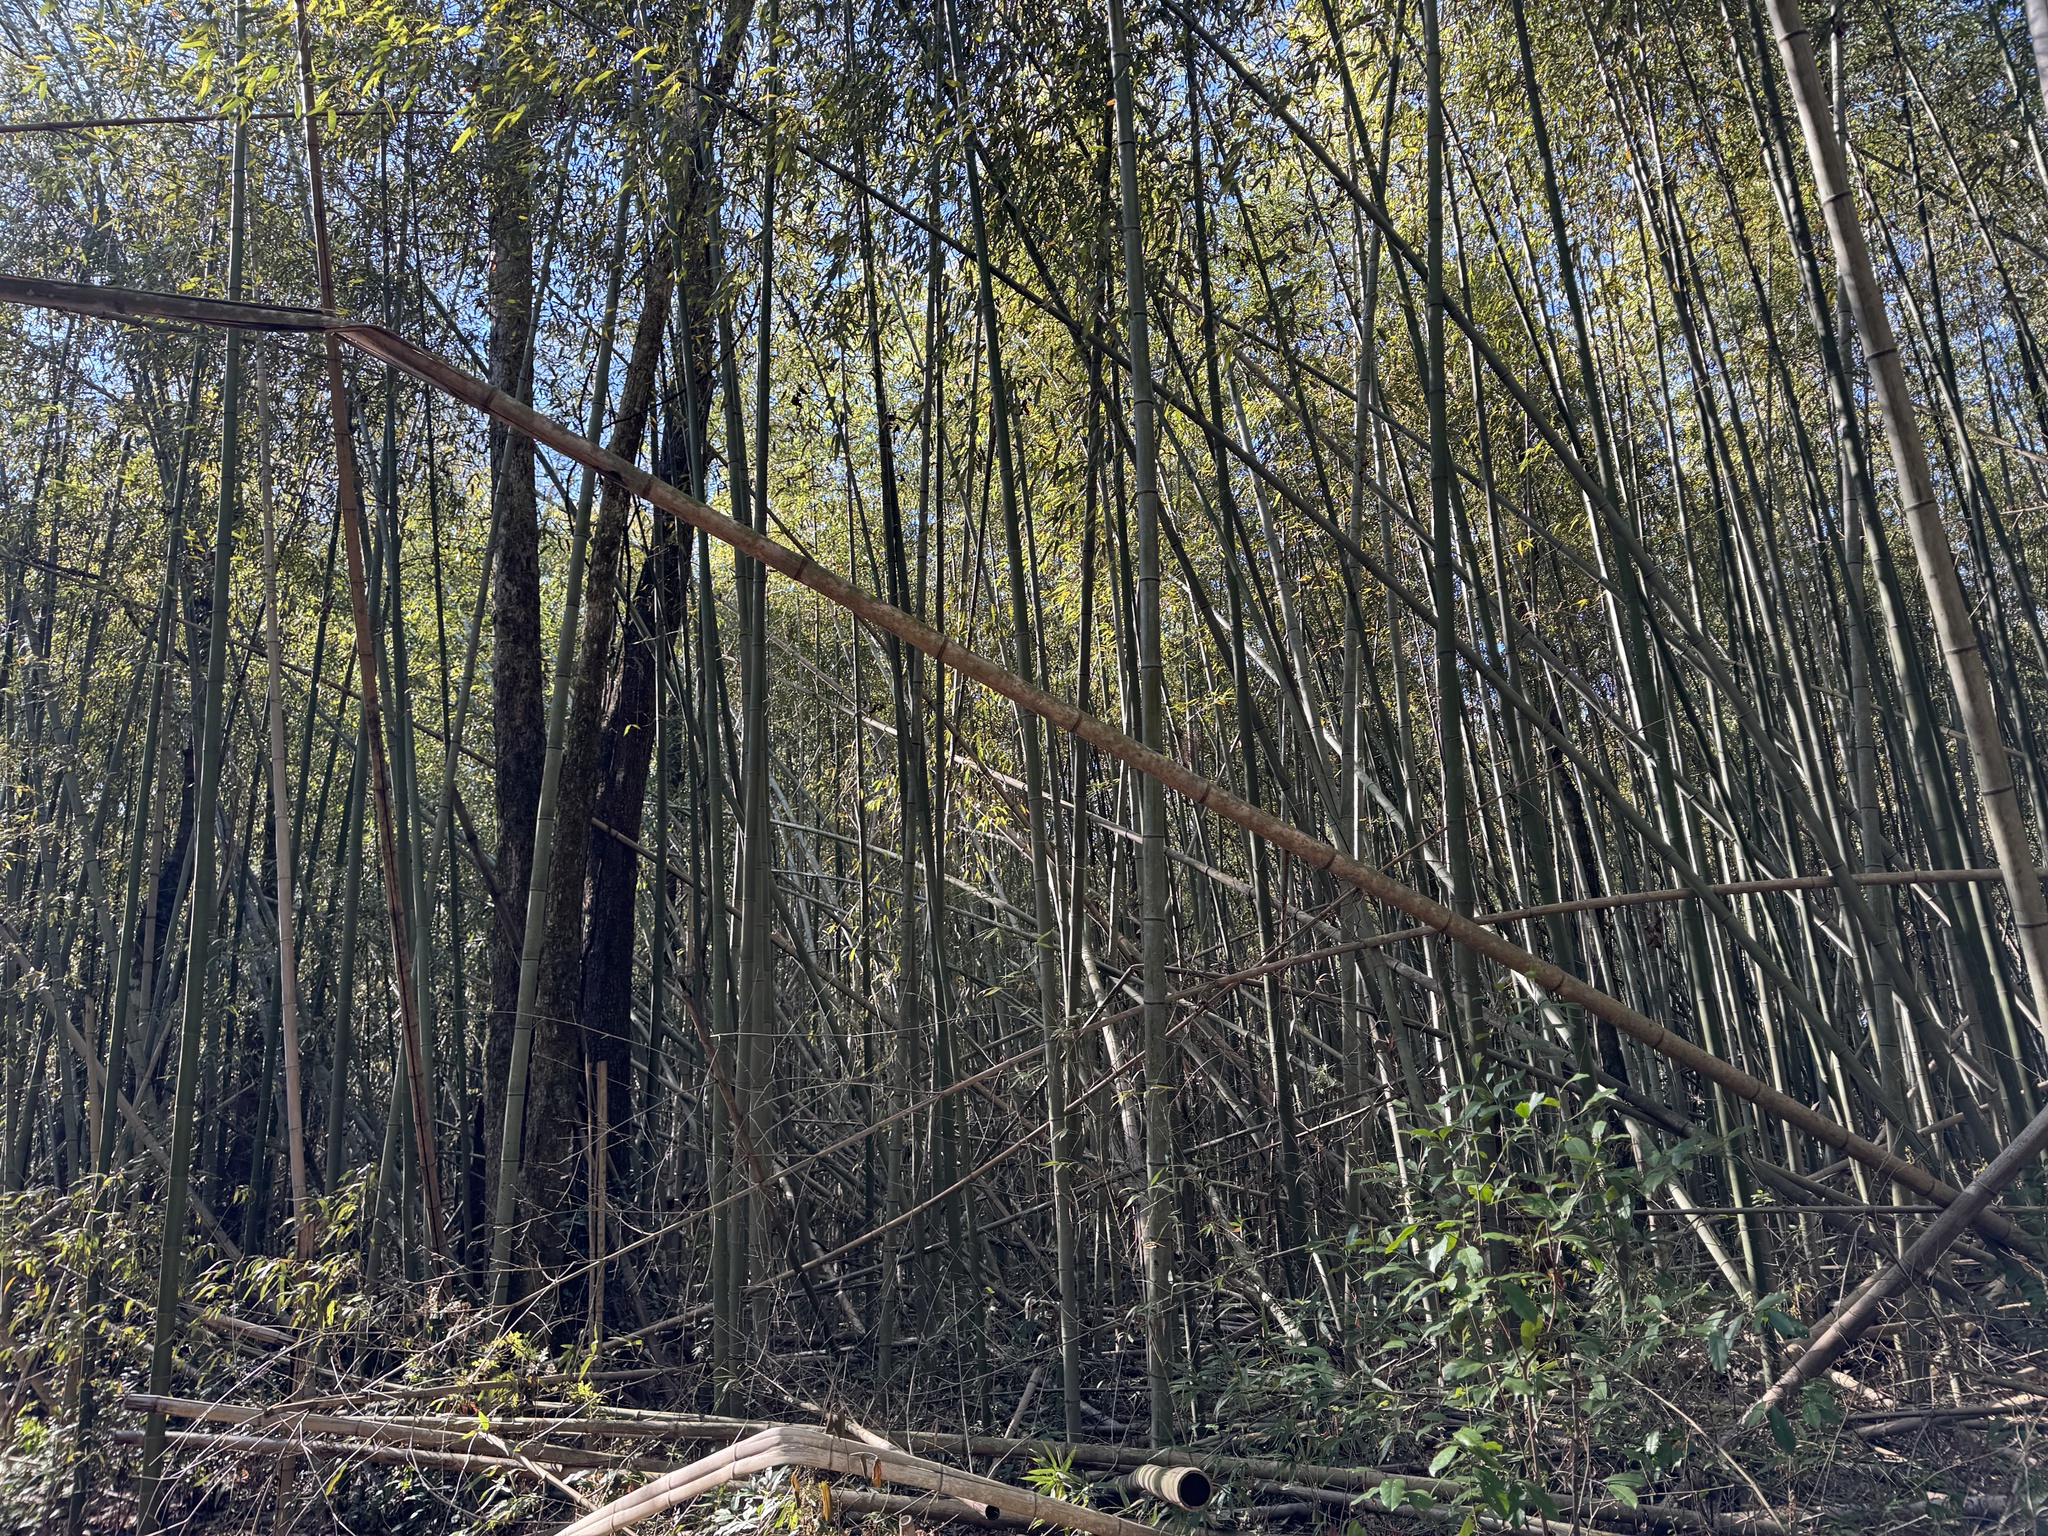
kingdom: Plantae
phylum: Tracheophyta
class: Liliopsida
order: Poales
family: Poaceae
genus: Phyllostachys
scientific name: Phyllostachys nigra
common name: Black bamboo
